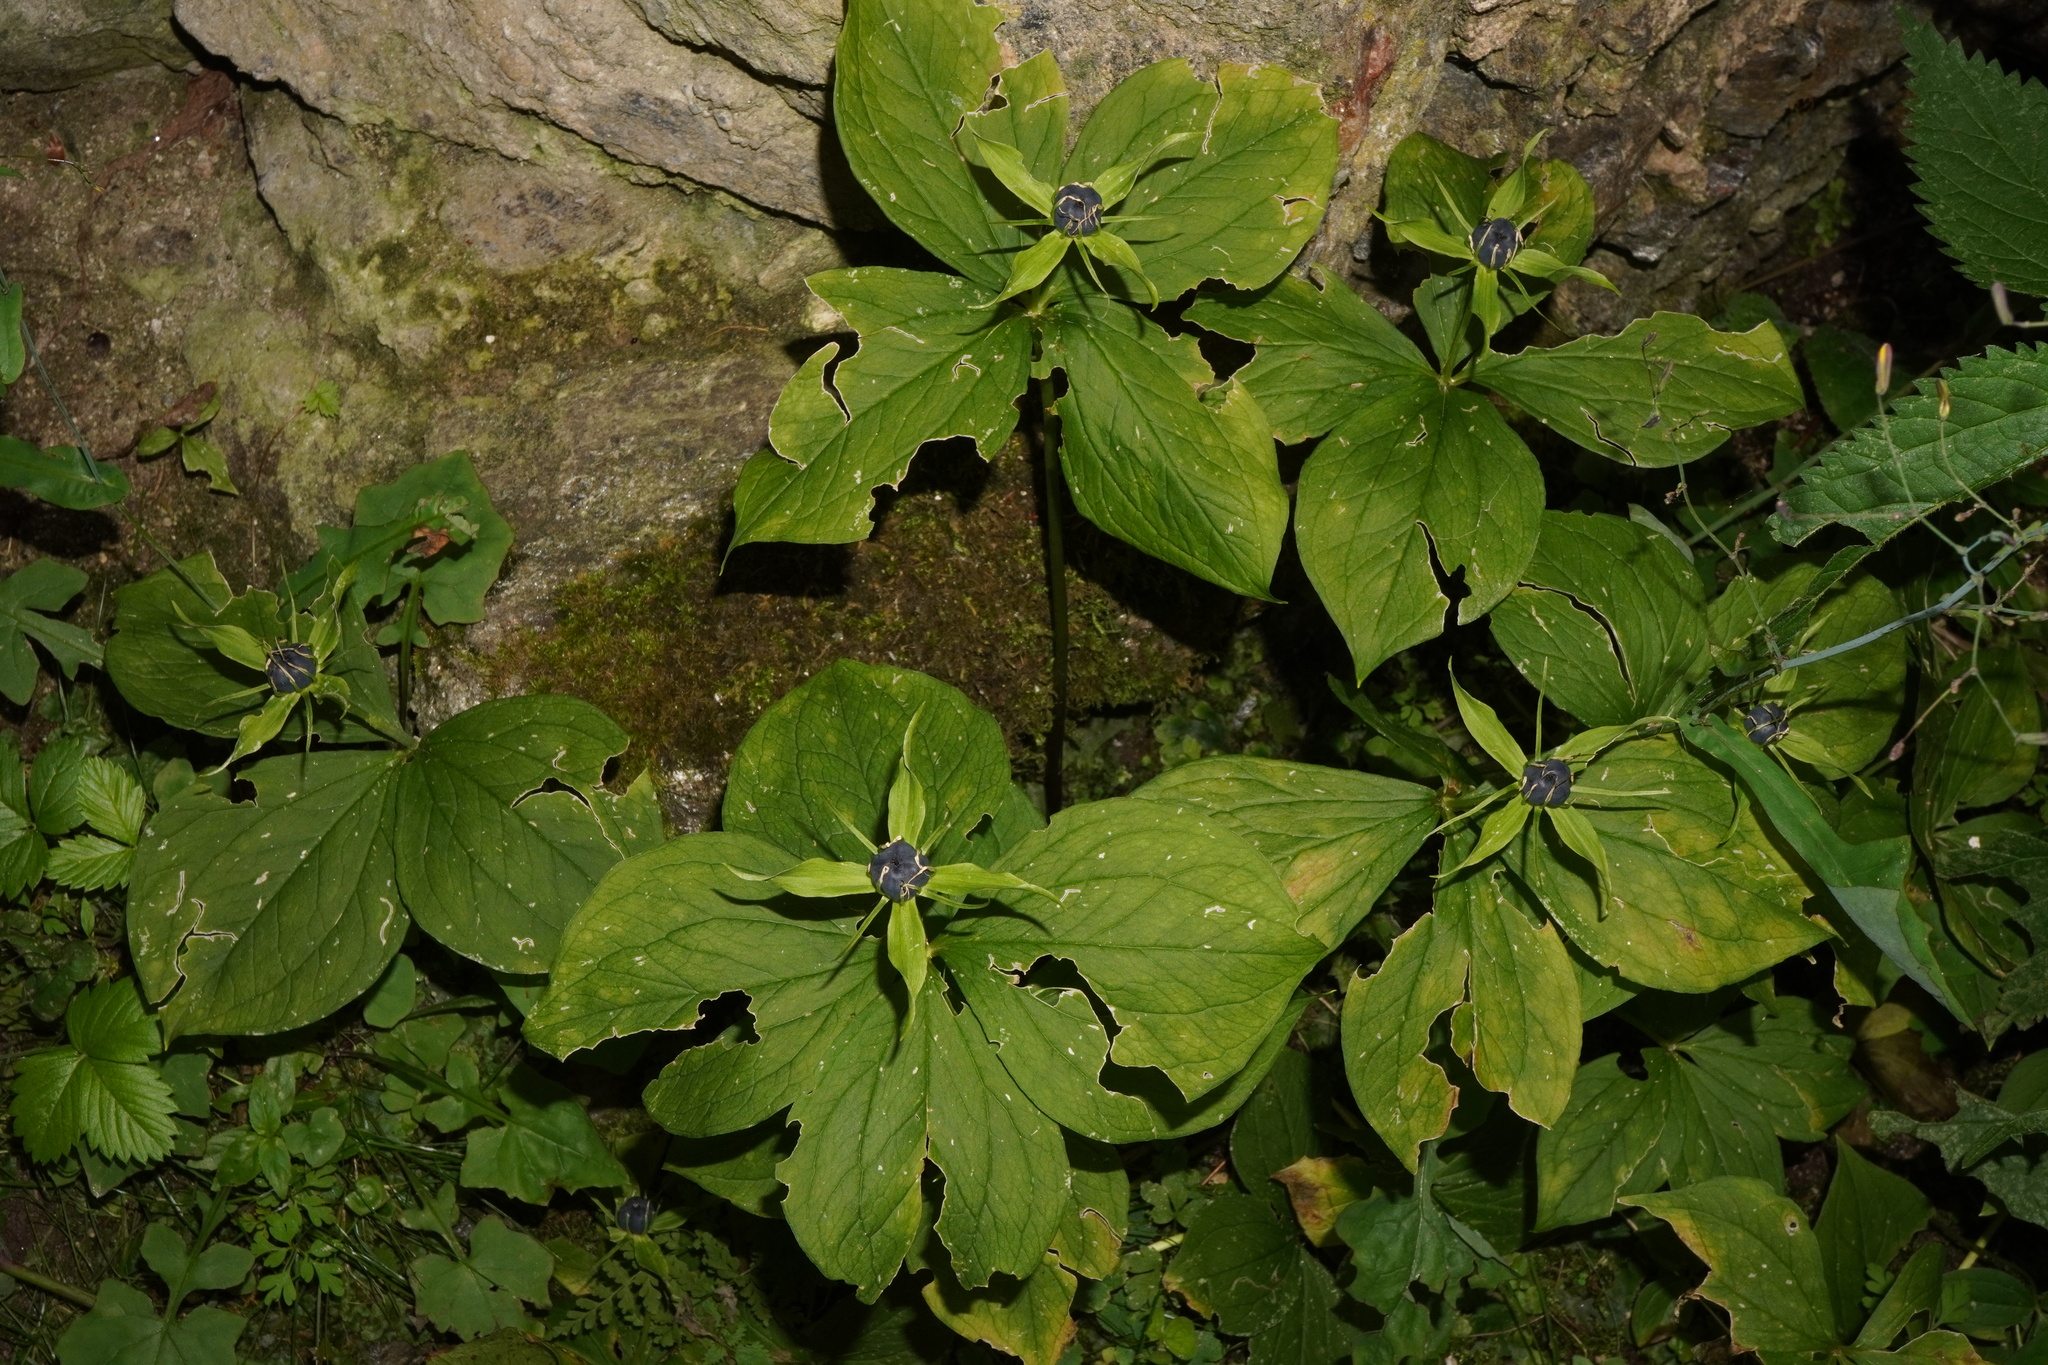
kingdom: Plantae
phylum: Tracheophyta
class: Liliopsida
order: Liliales
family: Melanthiaceae
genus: Paris
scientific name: Paris quadrifolia
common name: Herb-paris
